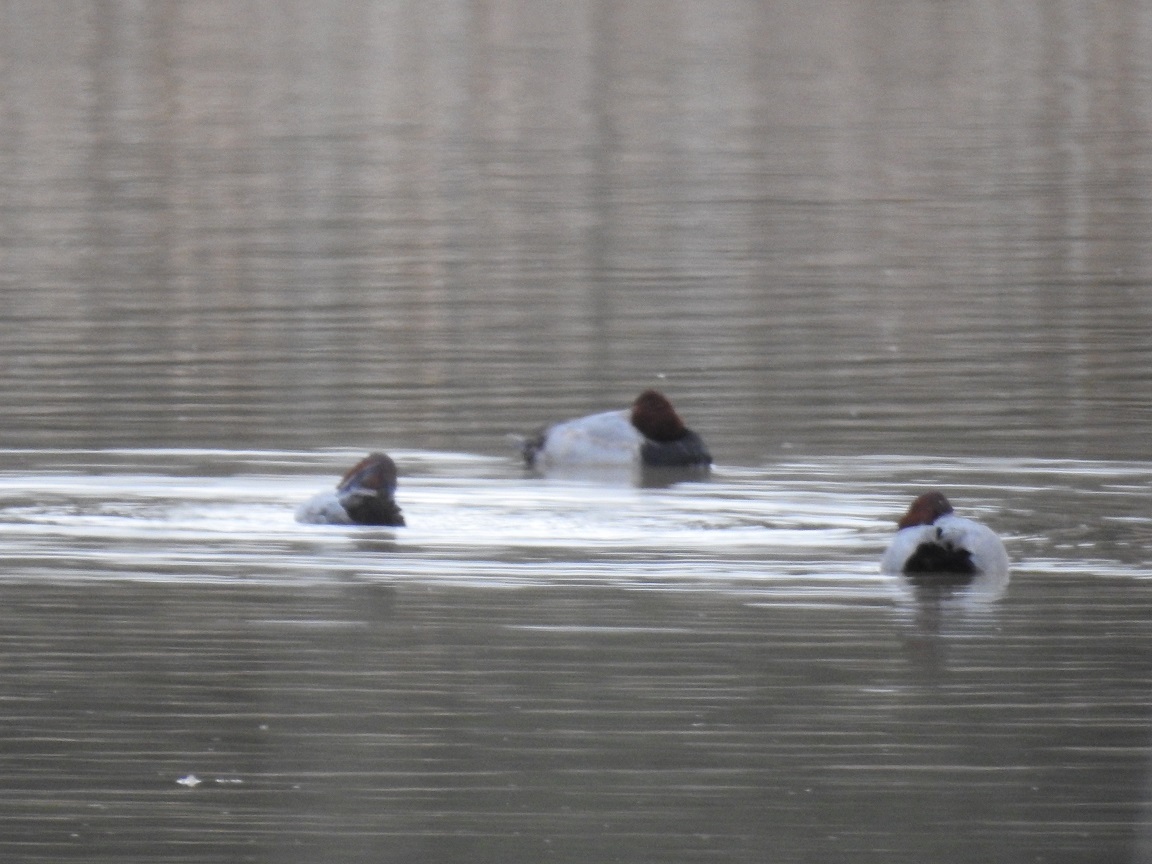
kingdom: Animalia
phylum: Chordata
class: Aves
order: Anseriformes
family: Anatidae
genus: Aythya
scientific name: Aythya ferina
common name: Common pochard
